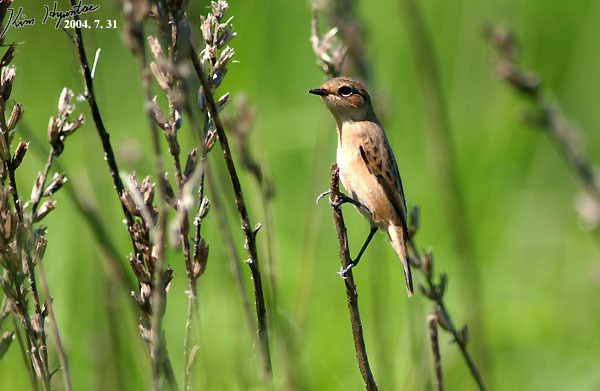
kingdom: Animalia
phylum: Chordata
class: Aves
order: Passeriformes
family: Muscicapidae
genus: Saxicola
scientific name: Saxicola stejnegeri
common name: Stejneger's stonechat
